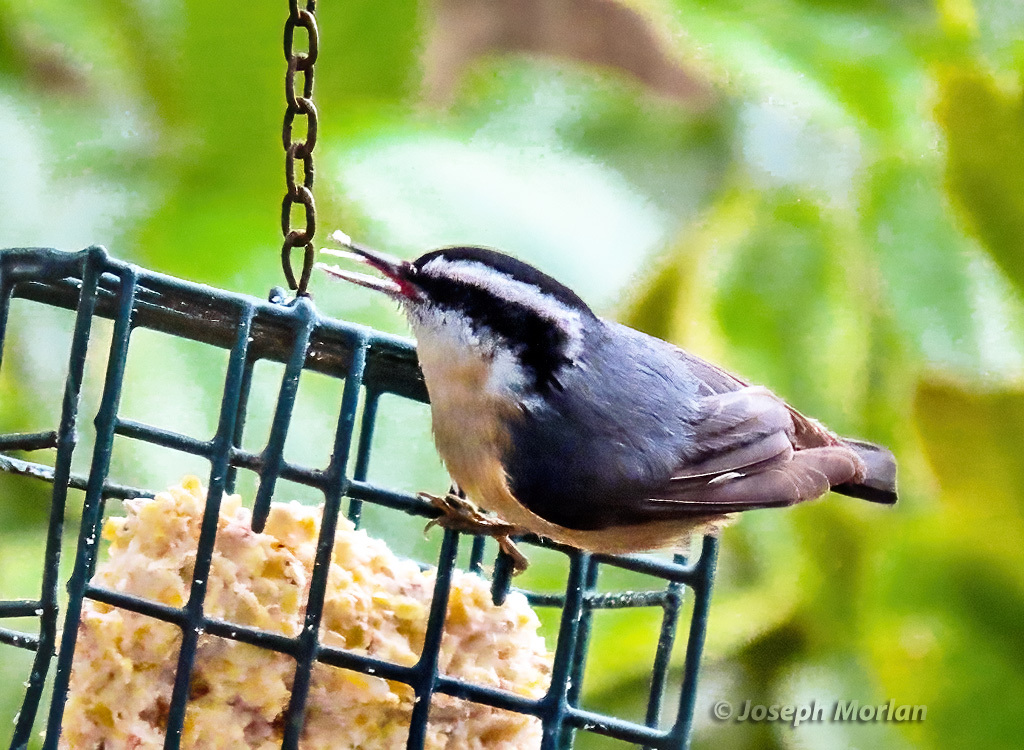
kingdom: Animalia
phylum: Chordata
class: Aves
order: Passeriformes
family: Sittidae
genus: Sitta
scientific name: Sitta canadensis
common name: Red-breasted nuthatch
